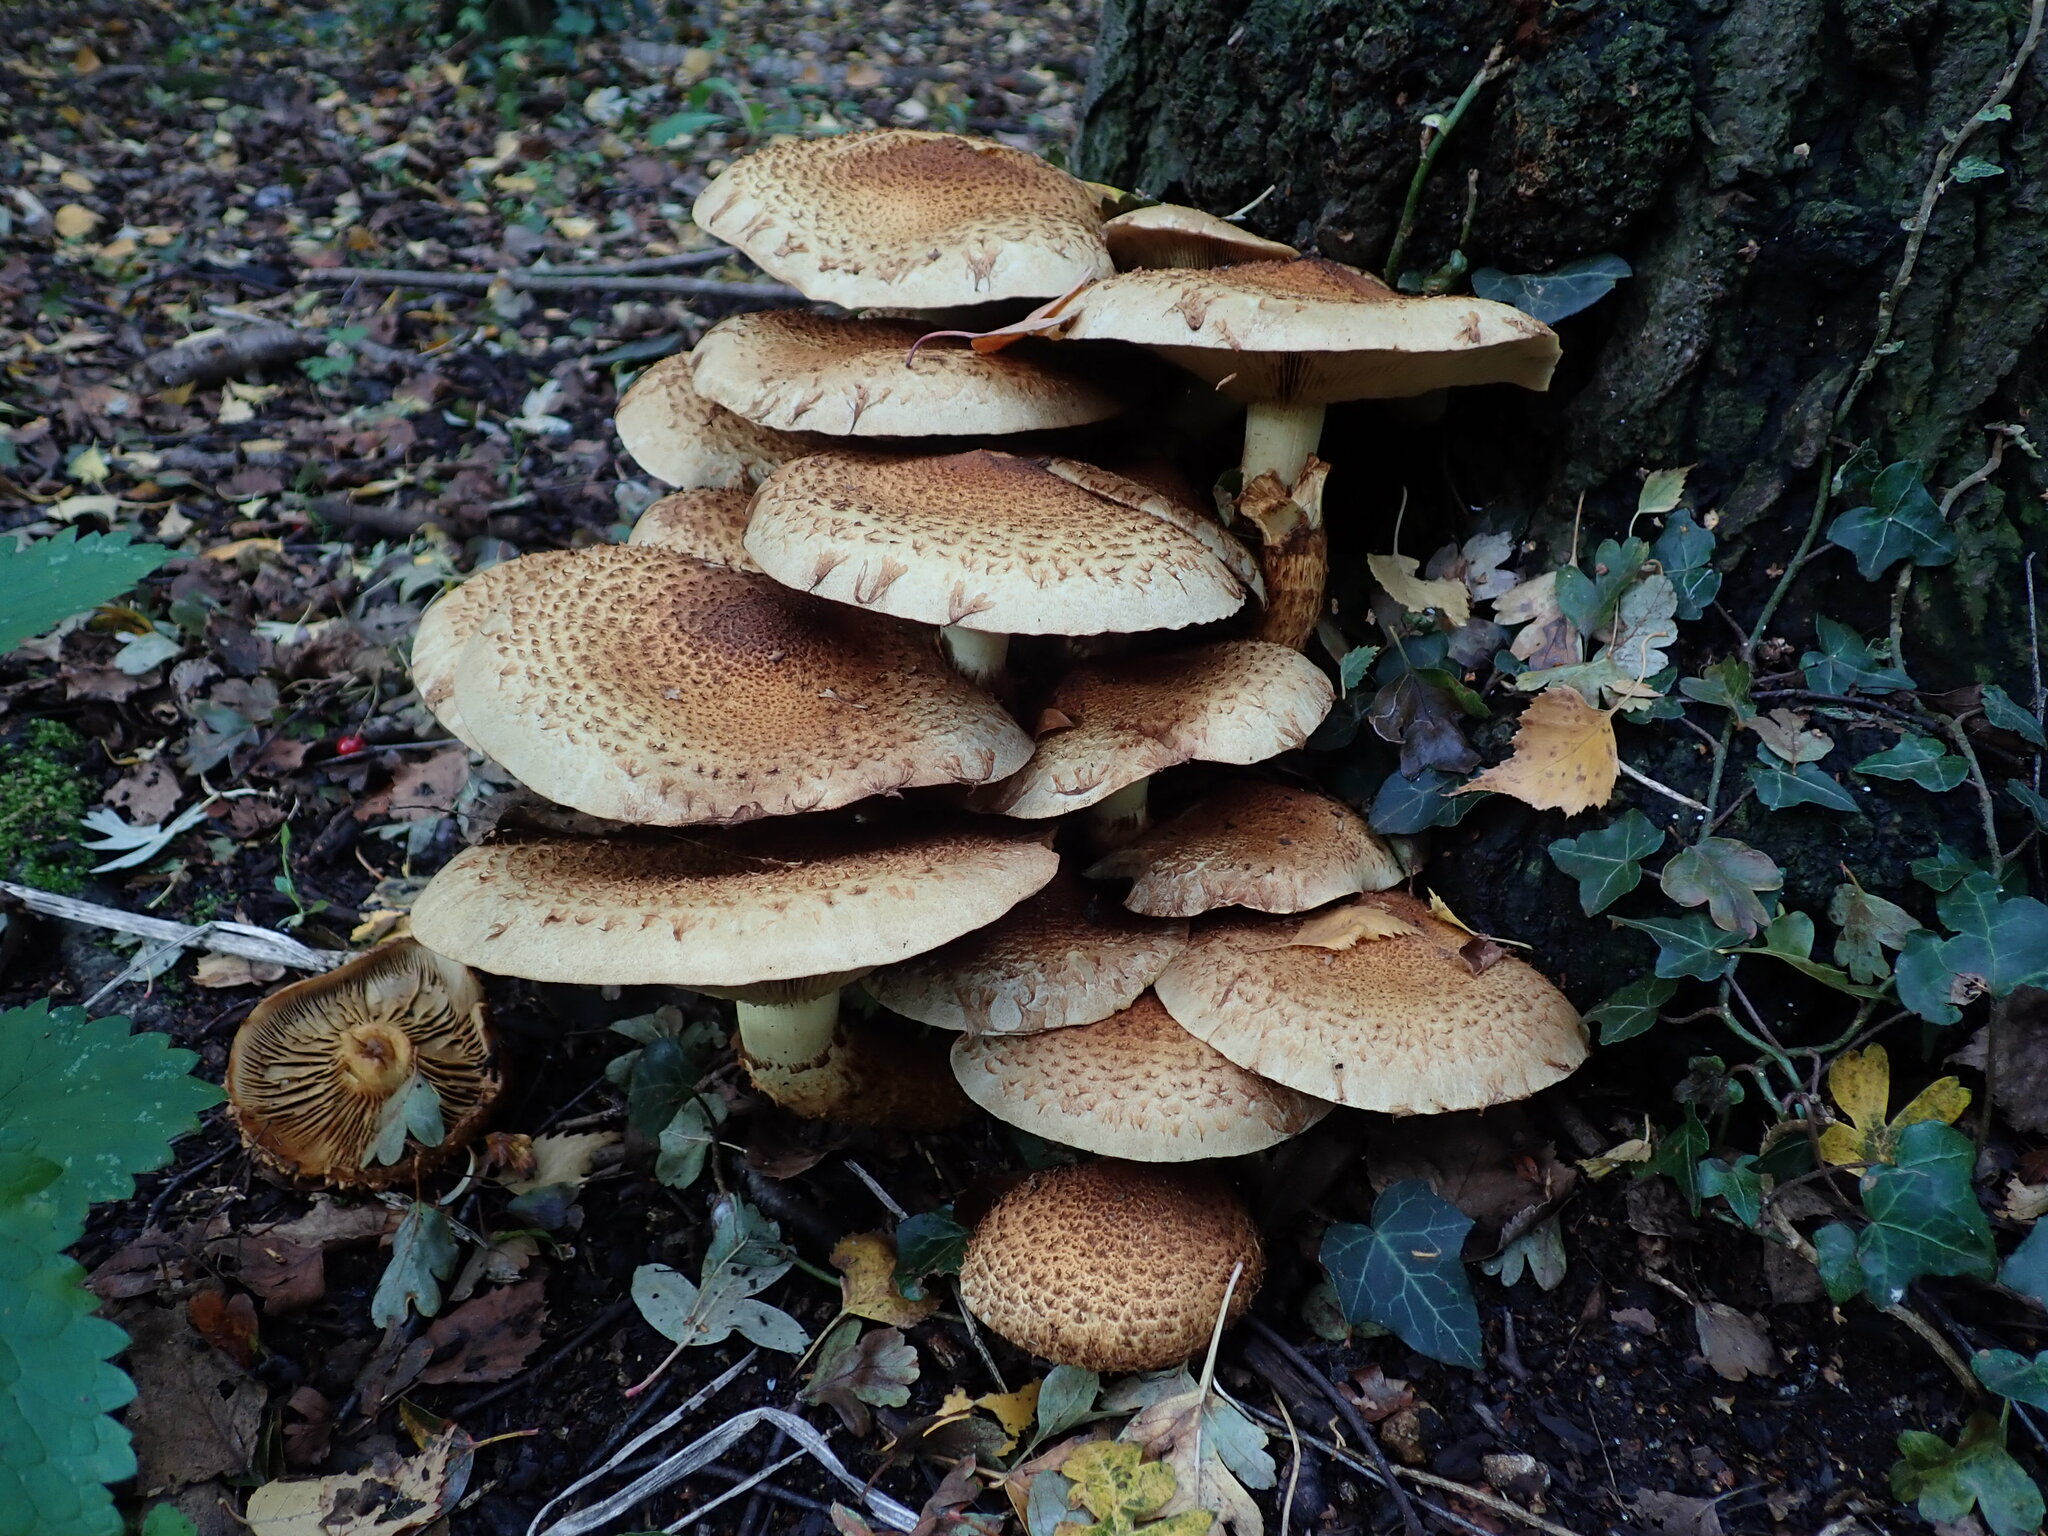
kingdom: Fungi
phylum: Basidiomycota
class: Agaricomycetes
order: Agaricales
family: Strophariaceae
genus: Pholiota
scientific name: Pholiota squarrosa
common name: Shaggy pholiota
